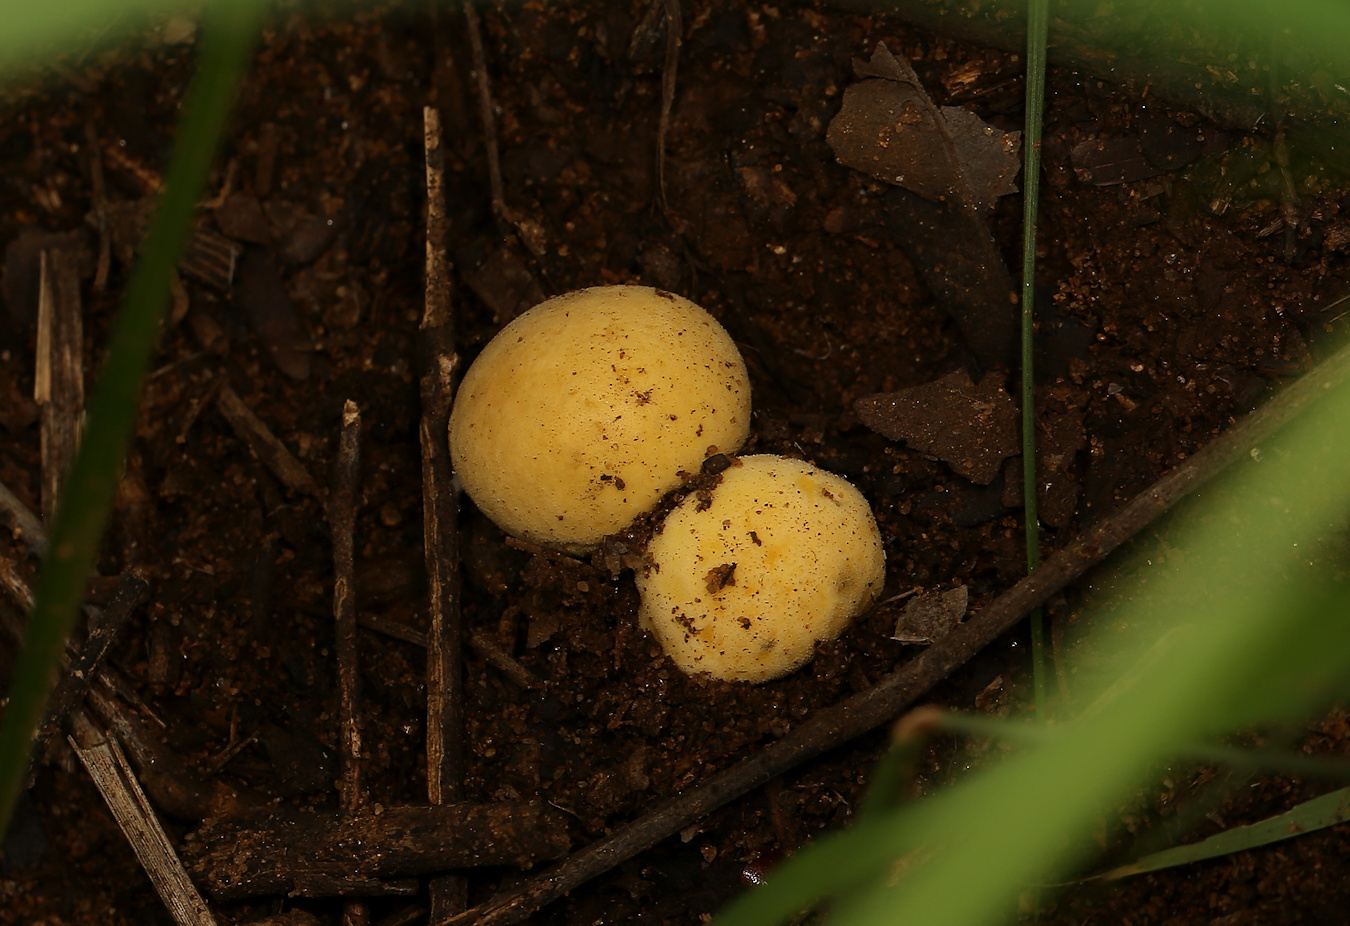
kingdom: Fungi
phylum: Basidiomycota
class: Agaricomycetes
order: Agaricales
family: Lycoperdaceae
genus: Bovista
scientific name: Bovista colorata
